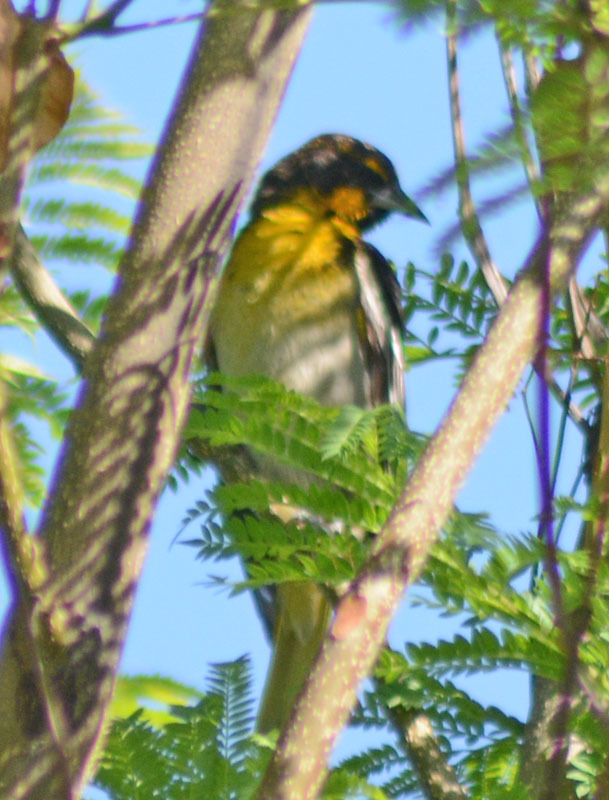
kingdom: Animalia
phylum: Chordata
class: Aves
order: Passeriformes
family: Icteridae
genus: Icterus
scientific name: Icterus abeillei
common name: Black-backed oriole
